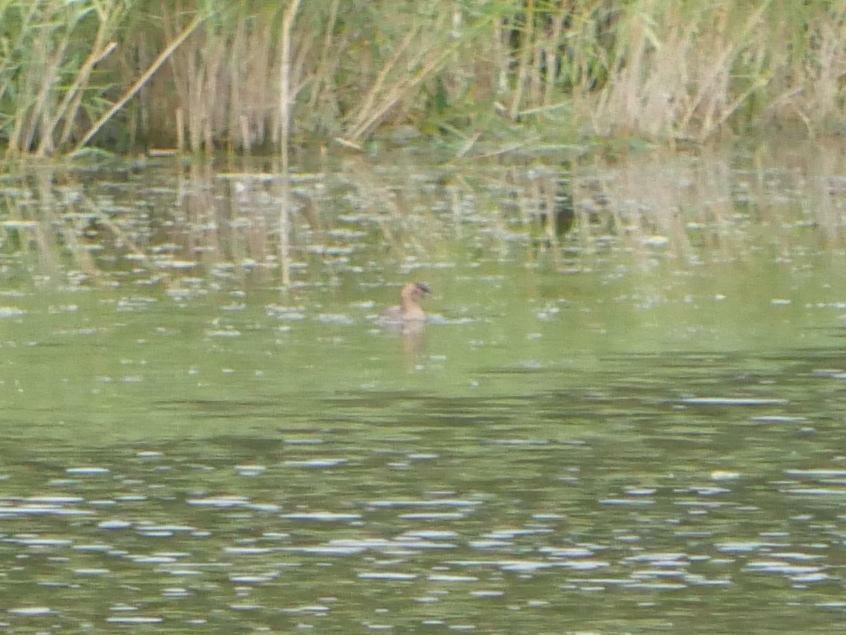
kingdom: Animalia
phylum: Chordata
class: Aves
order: Podicipediformes
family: Podicipedidae
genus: Tachybaptus
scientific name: Tachybaptus ruficollis
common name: Little grebe
